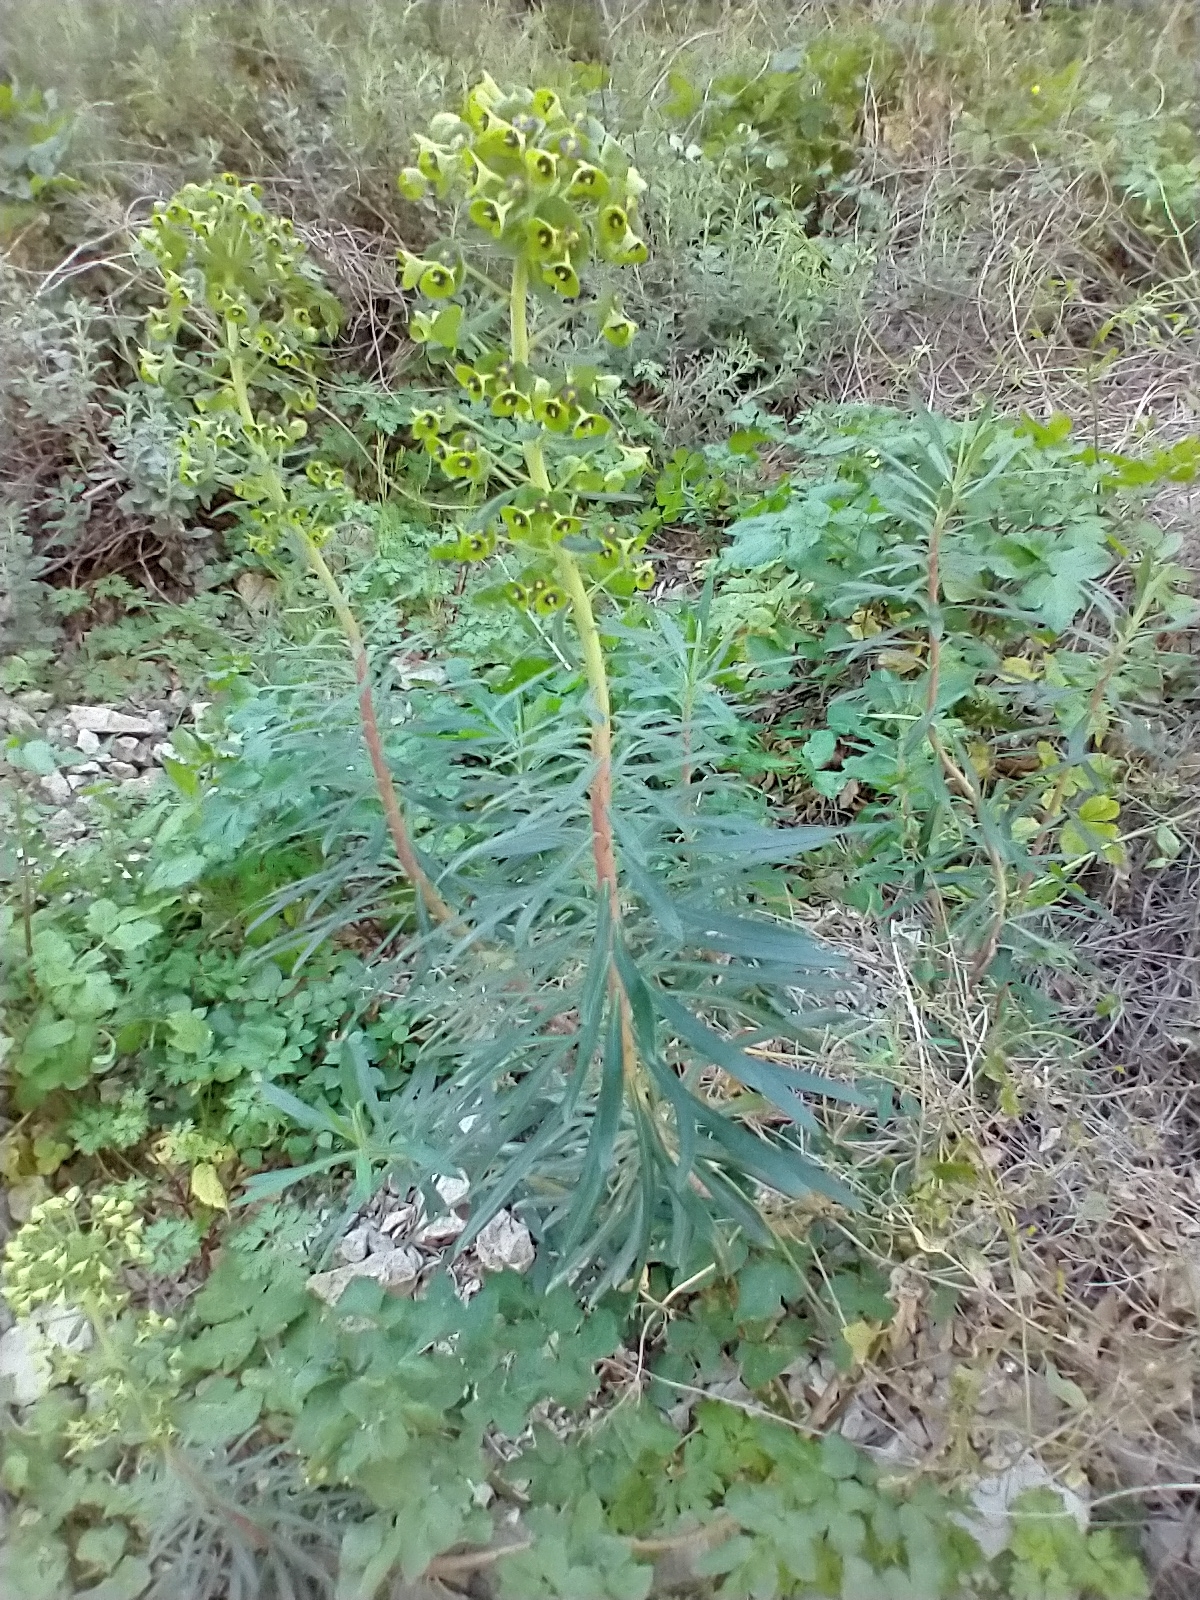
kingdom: Plantae
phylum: Tracheophyta
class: Magnoliopsida
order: Malpighiales
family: Euphorbiaceae
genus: Euphorbia
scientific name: Euphorbia characias
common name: Mediterranean spurge
